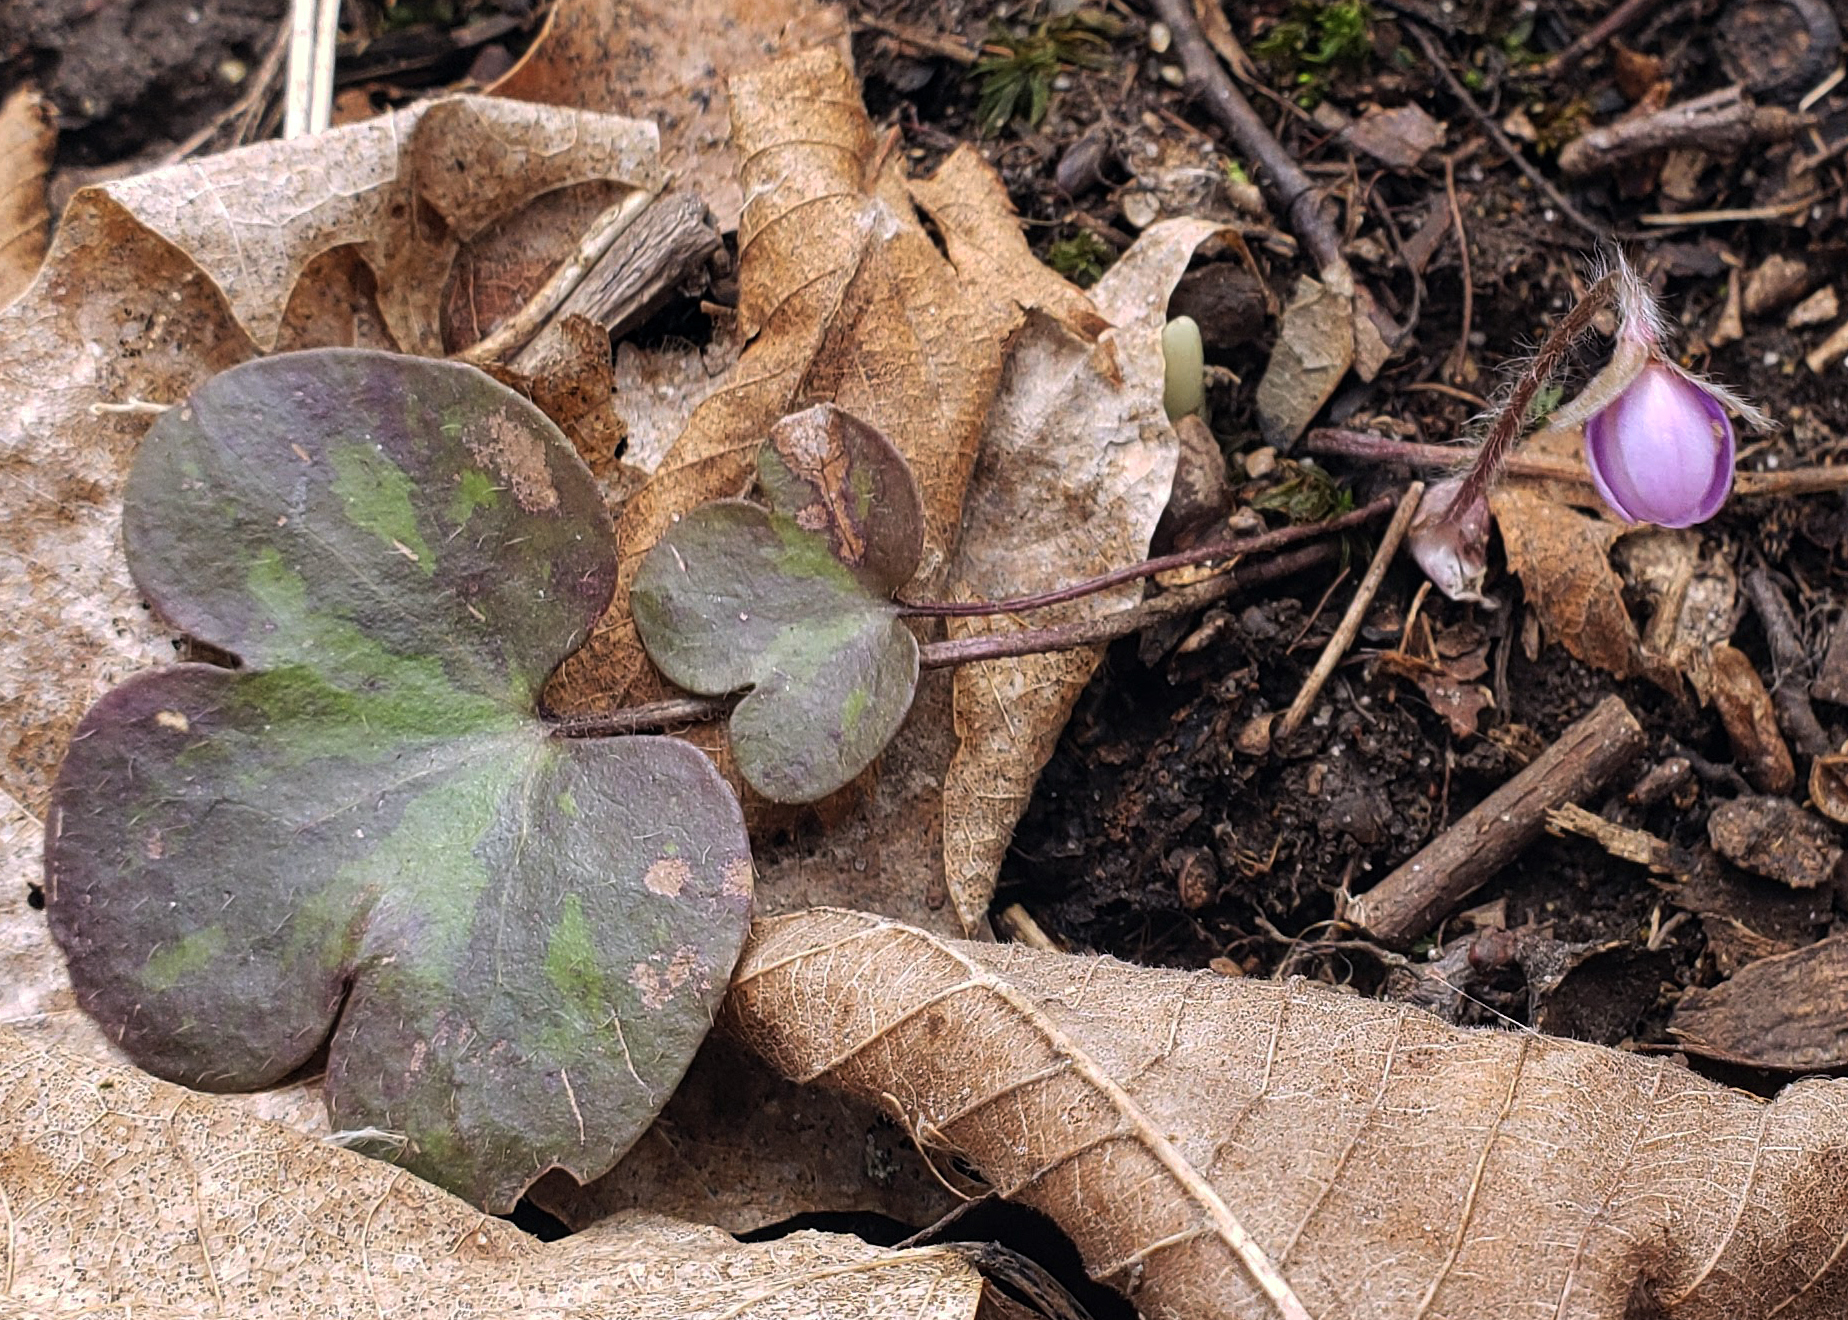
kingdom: Plantae
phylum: Tracheophyta
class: Magnoliopsida
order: Ranunculales
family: Ranunculaceae
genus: Hepatica
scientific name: Hepatica americana
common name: American hepatica
